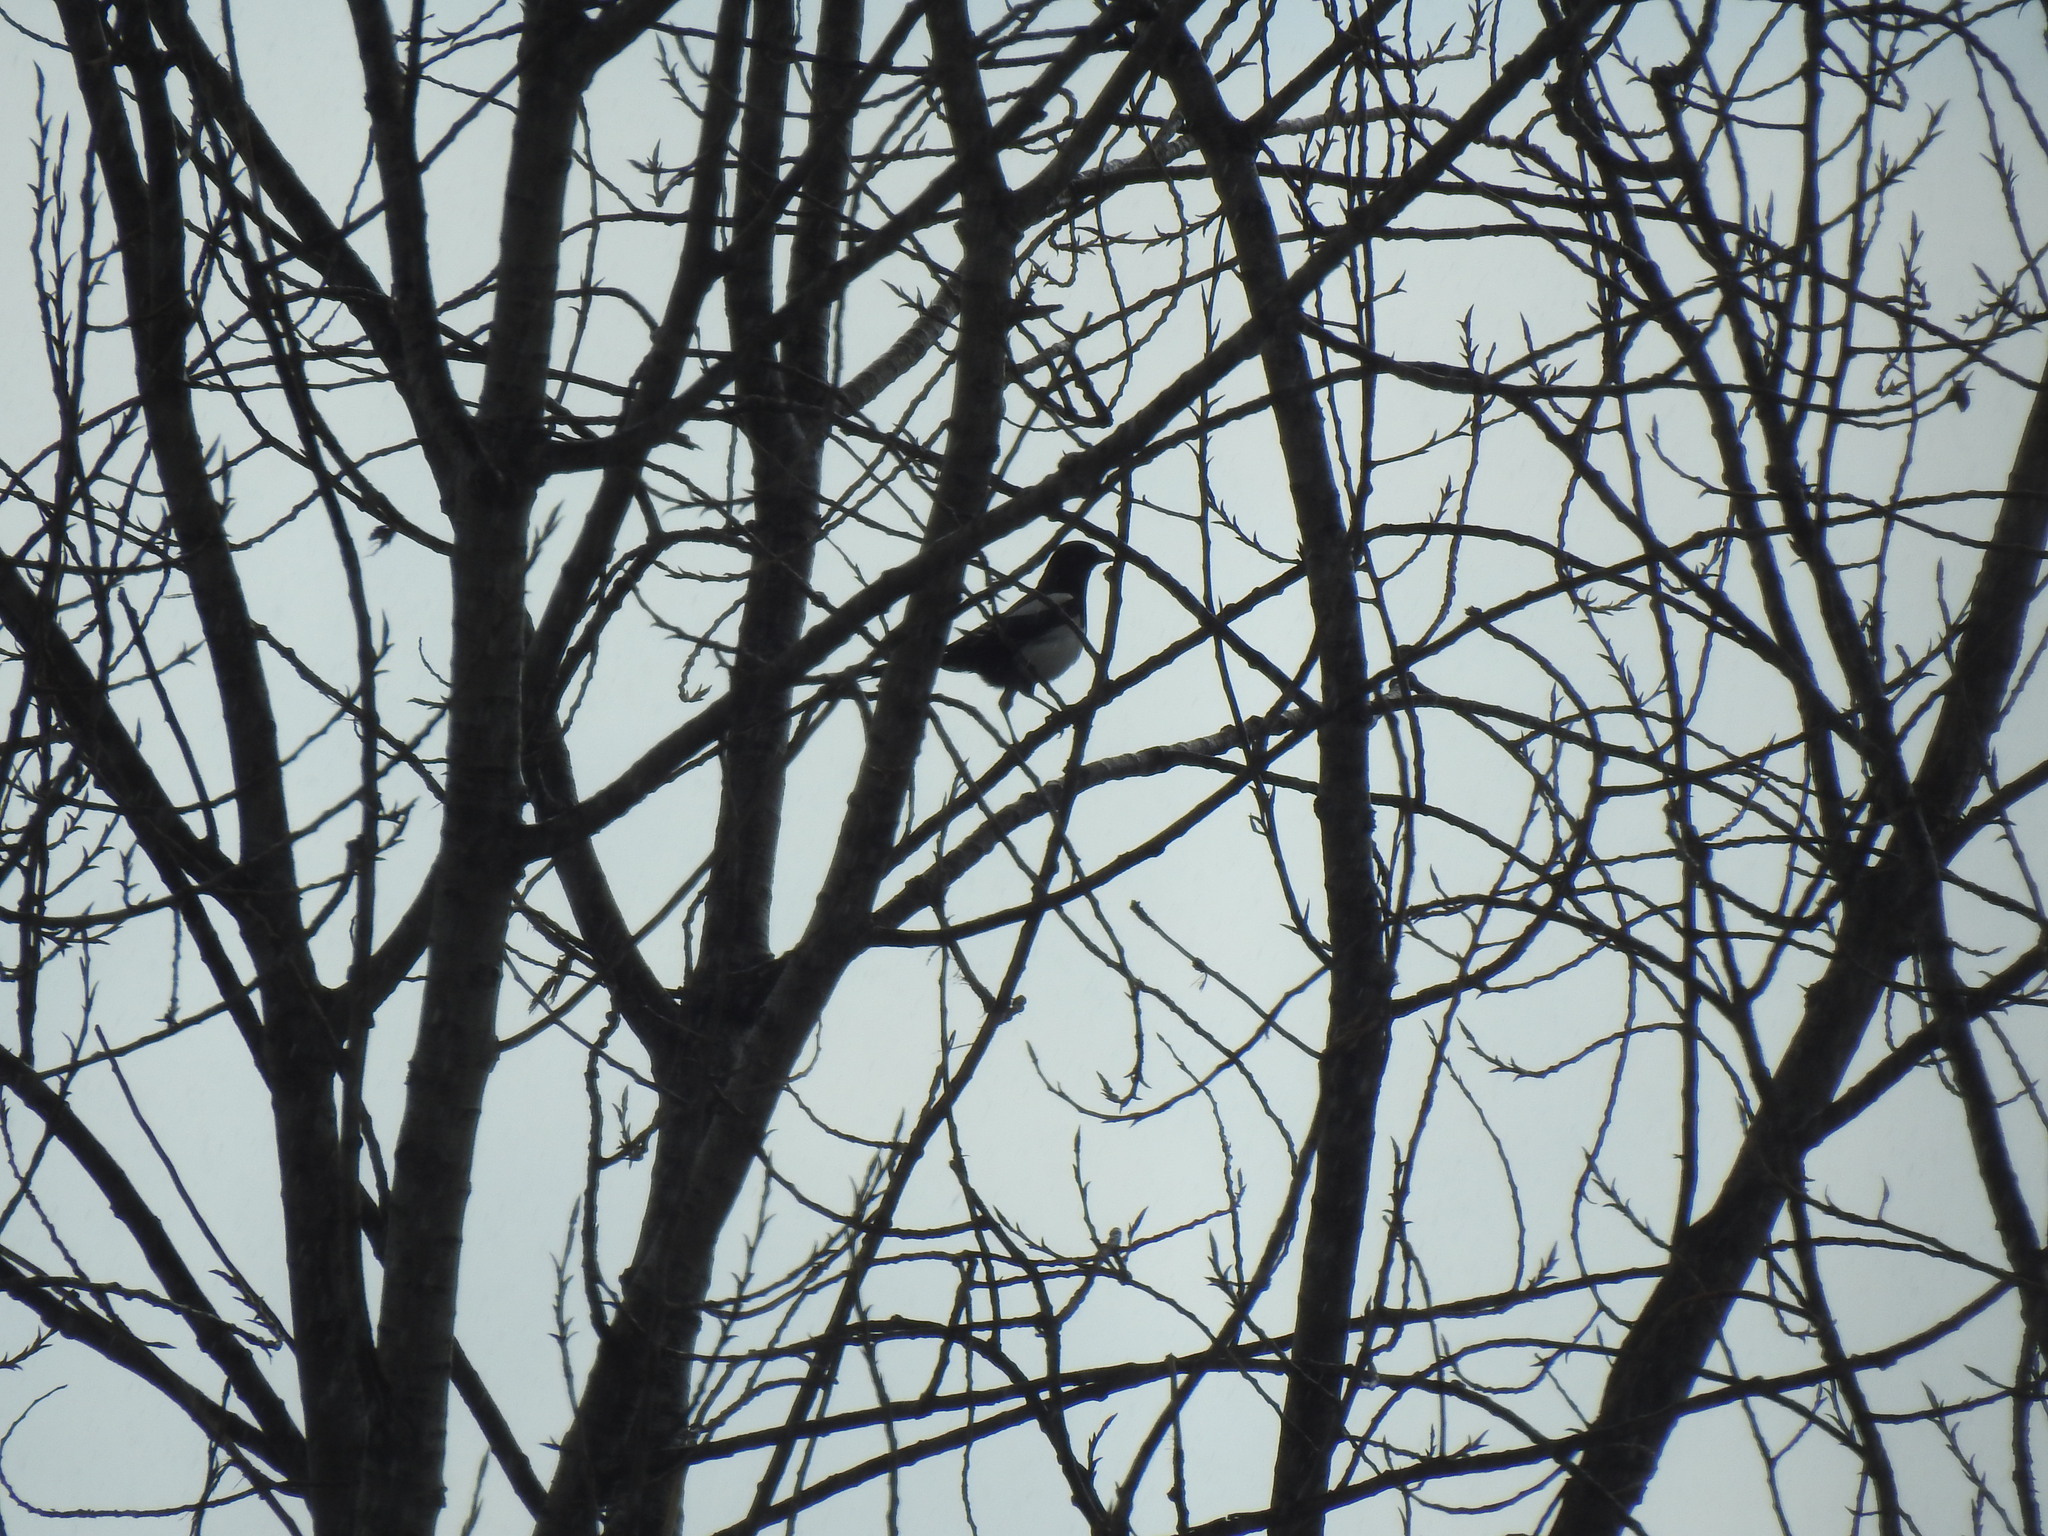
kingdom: Animalia
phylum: Chordata
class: Aves
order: Passeriformes
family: Corvidae
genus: Pica
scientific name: Pica pica
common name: Eurasian magpie
